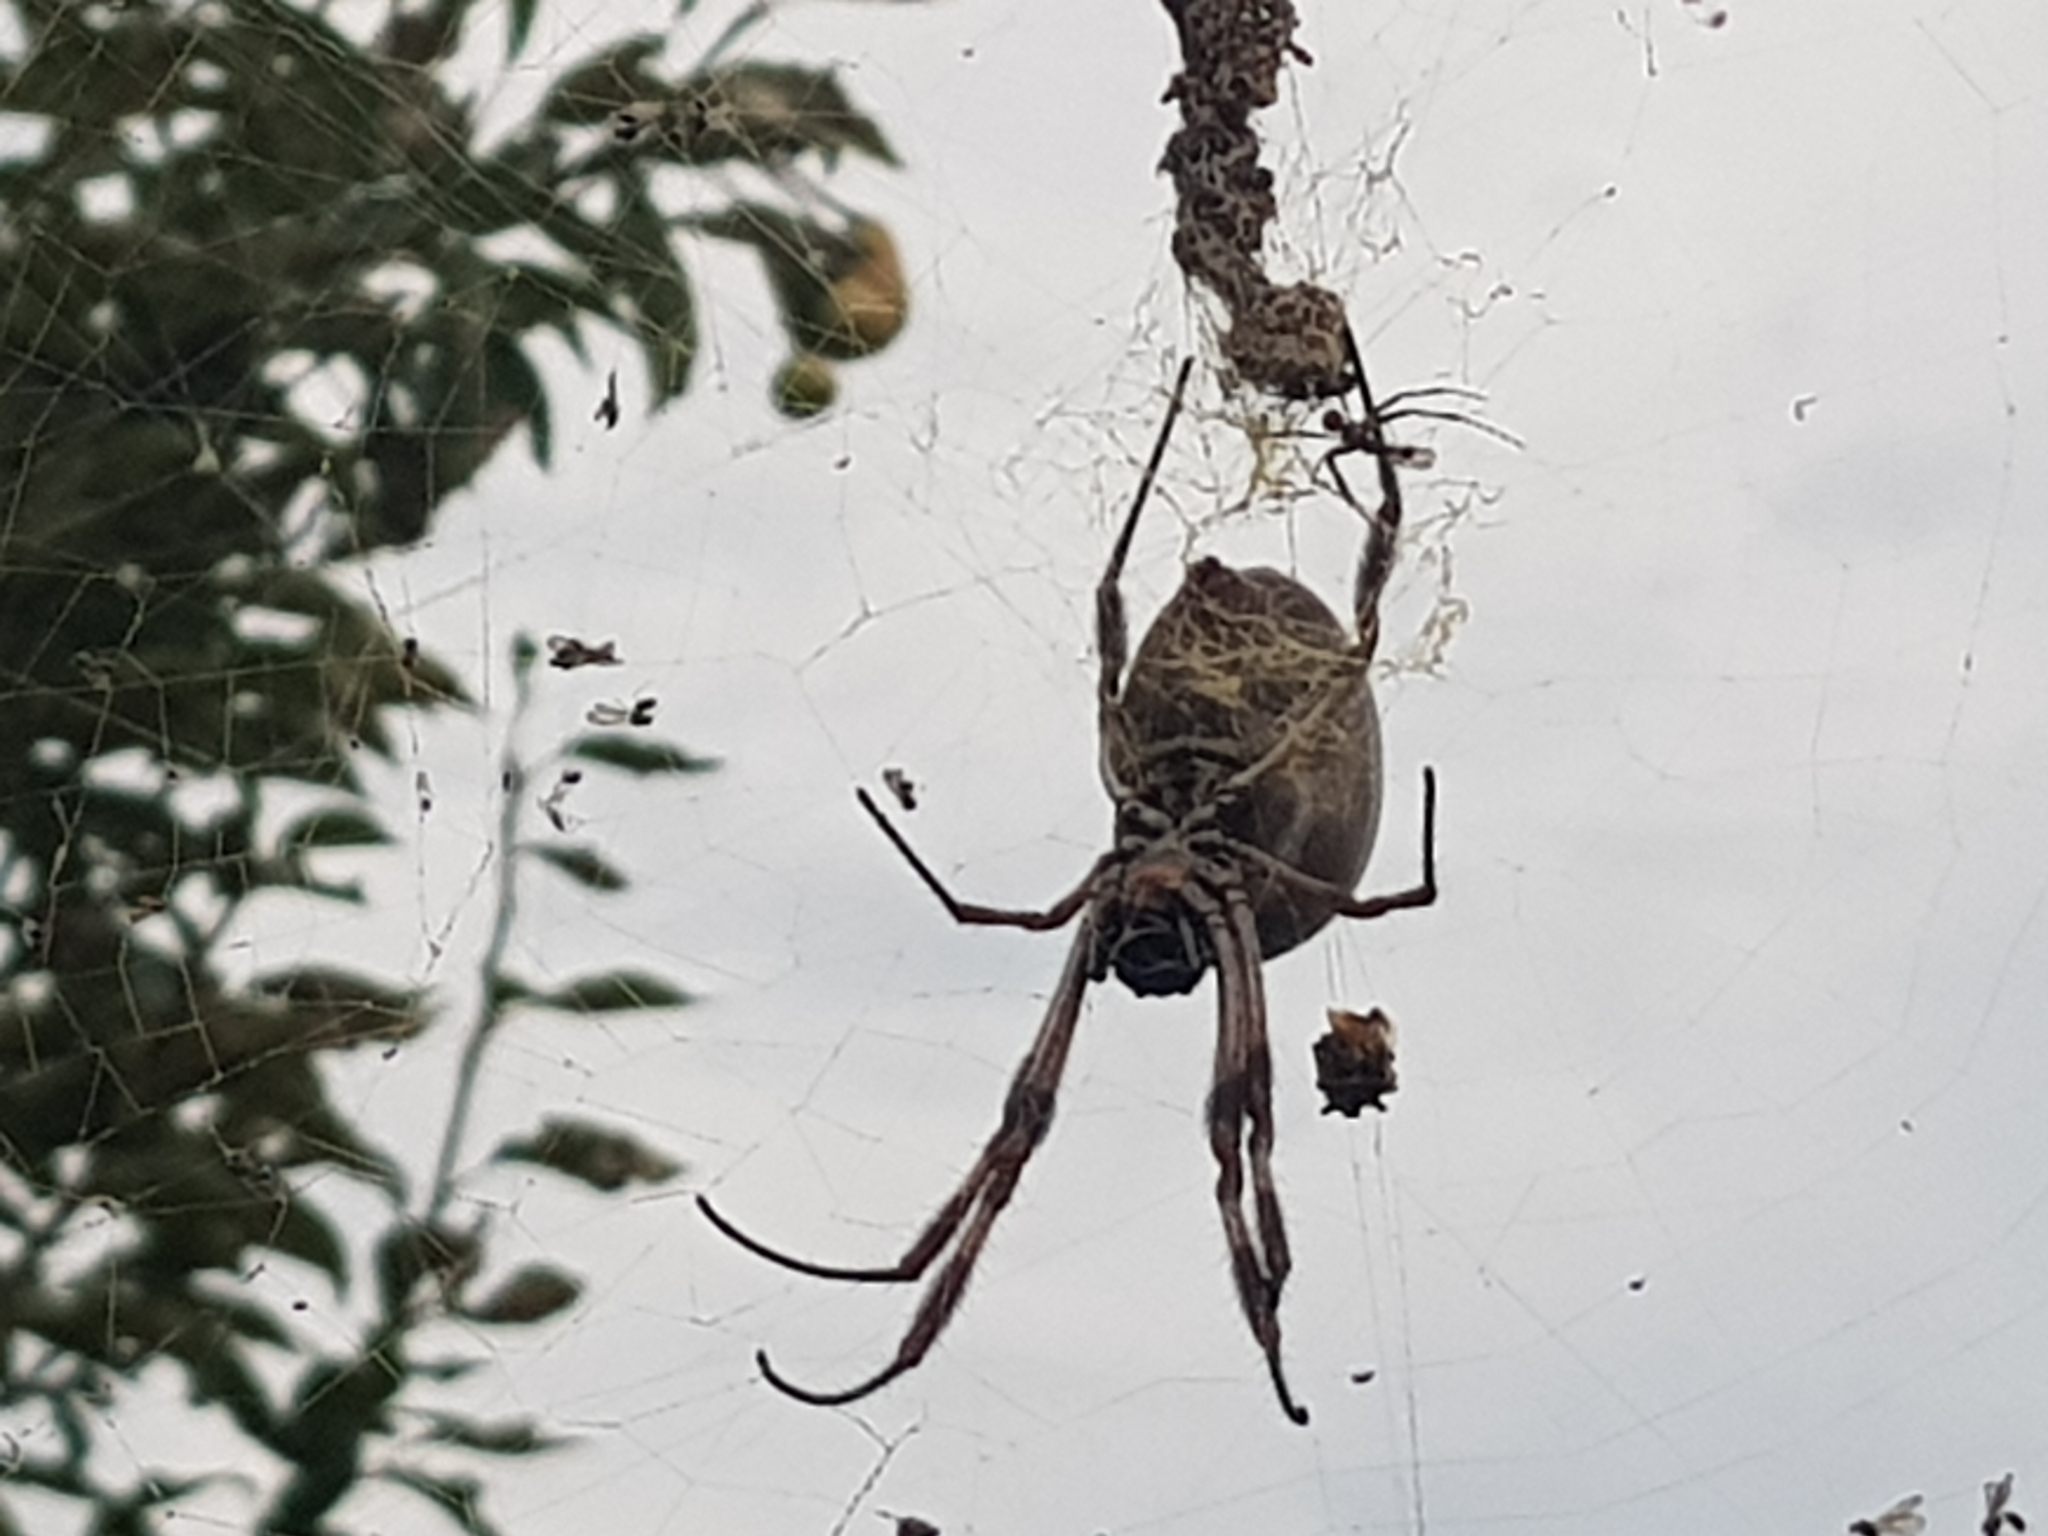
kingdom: Animalia
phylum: Arthropoda
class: Arachnida
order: Araneae
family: Araneidae
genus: Trichonephila
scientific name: Trichonephila edulis
